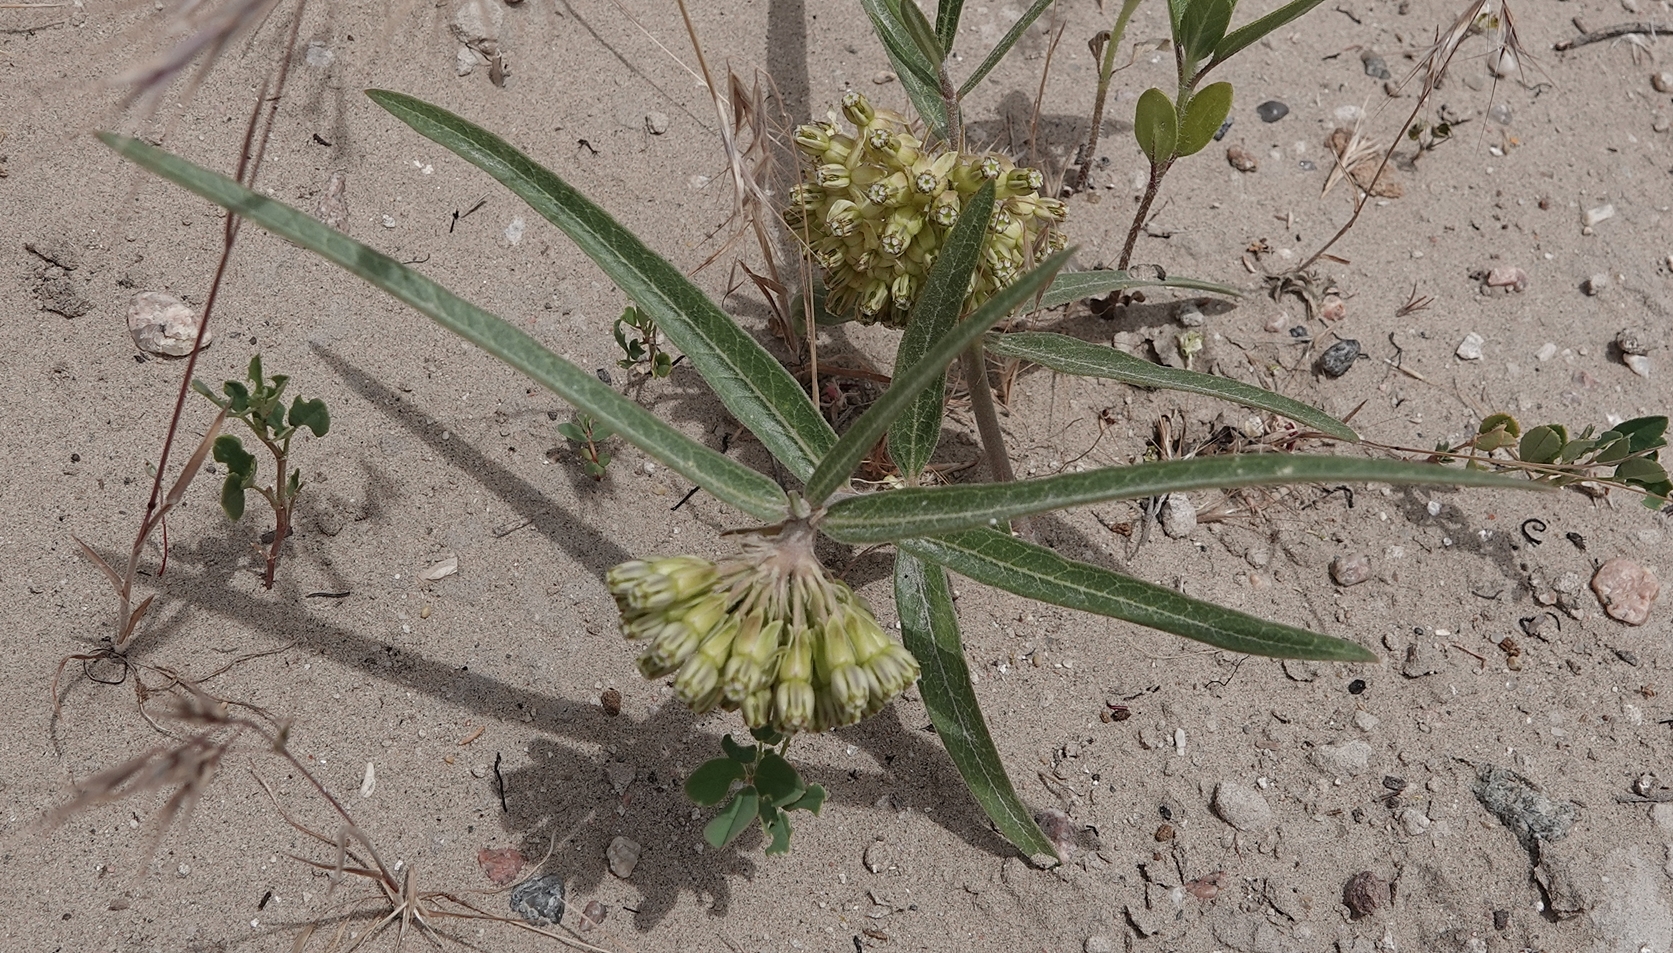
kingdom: Plantae
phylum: Tracheophyta
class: Magnoliopsida
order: Gentianales
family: Apocynaceae
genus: Asclepias
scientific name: Asclepias viridiflora
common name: Green comet milkweed
